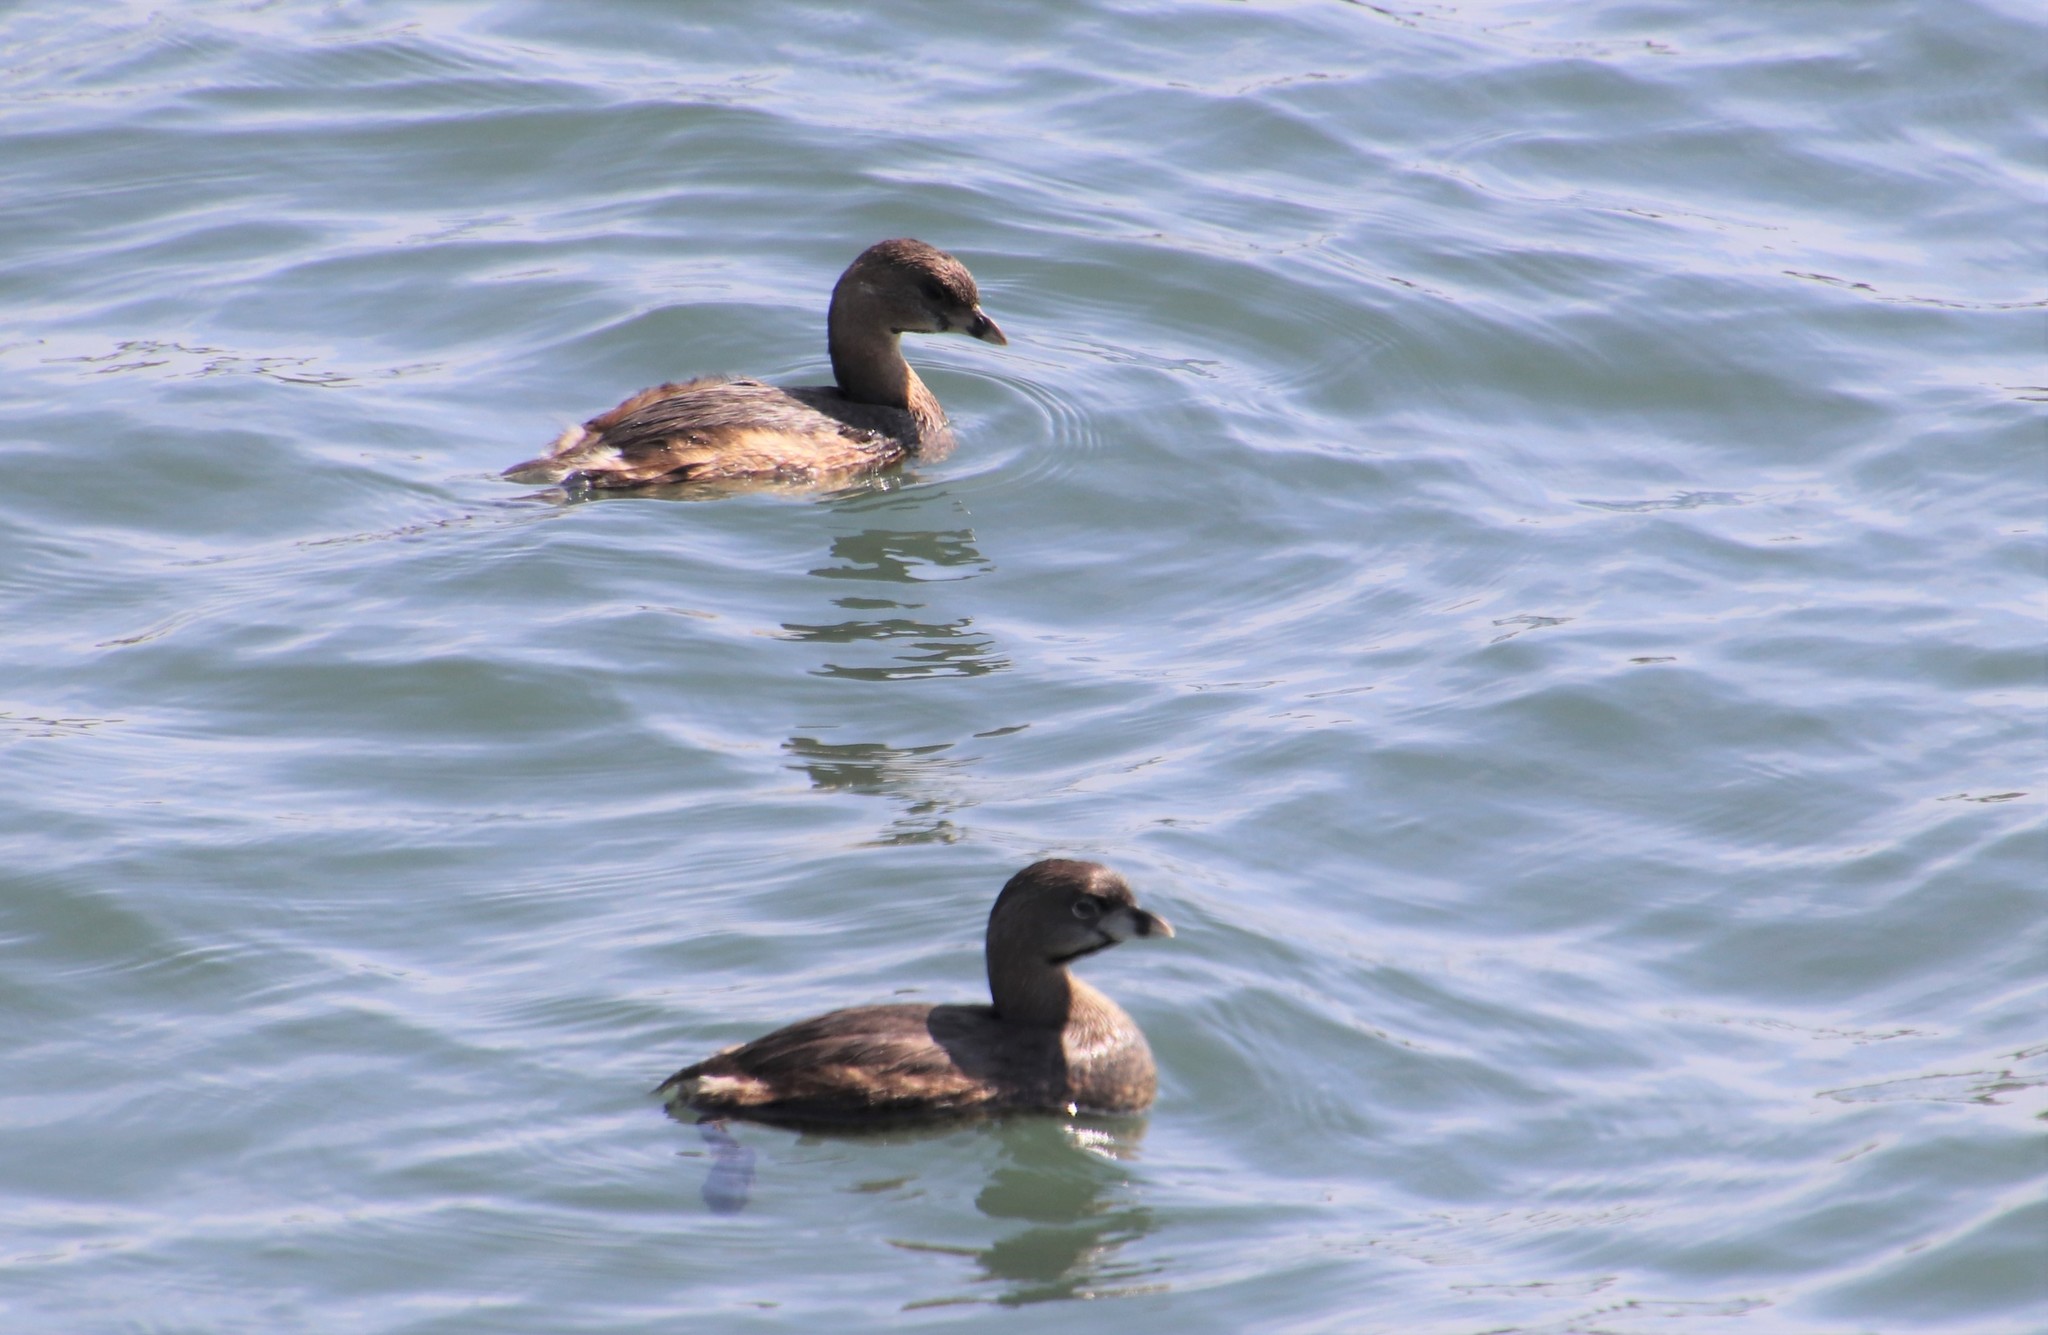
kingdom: Animalia
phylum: Chordata
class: Aves
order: Podicipediformes
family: Podicipedidae
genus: Podilymbus
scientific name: Podilymbus podiceps
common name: Pied-billed grebe
